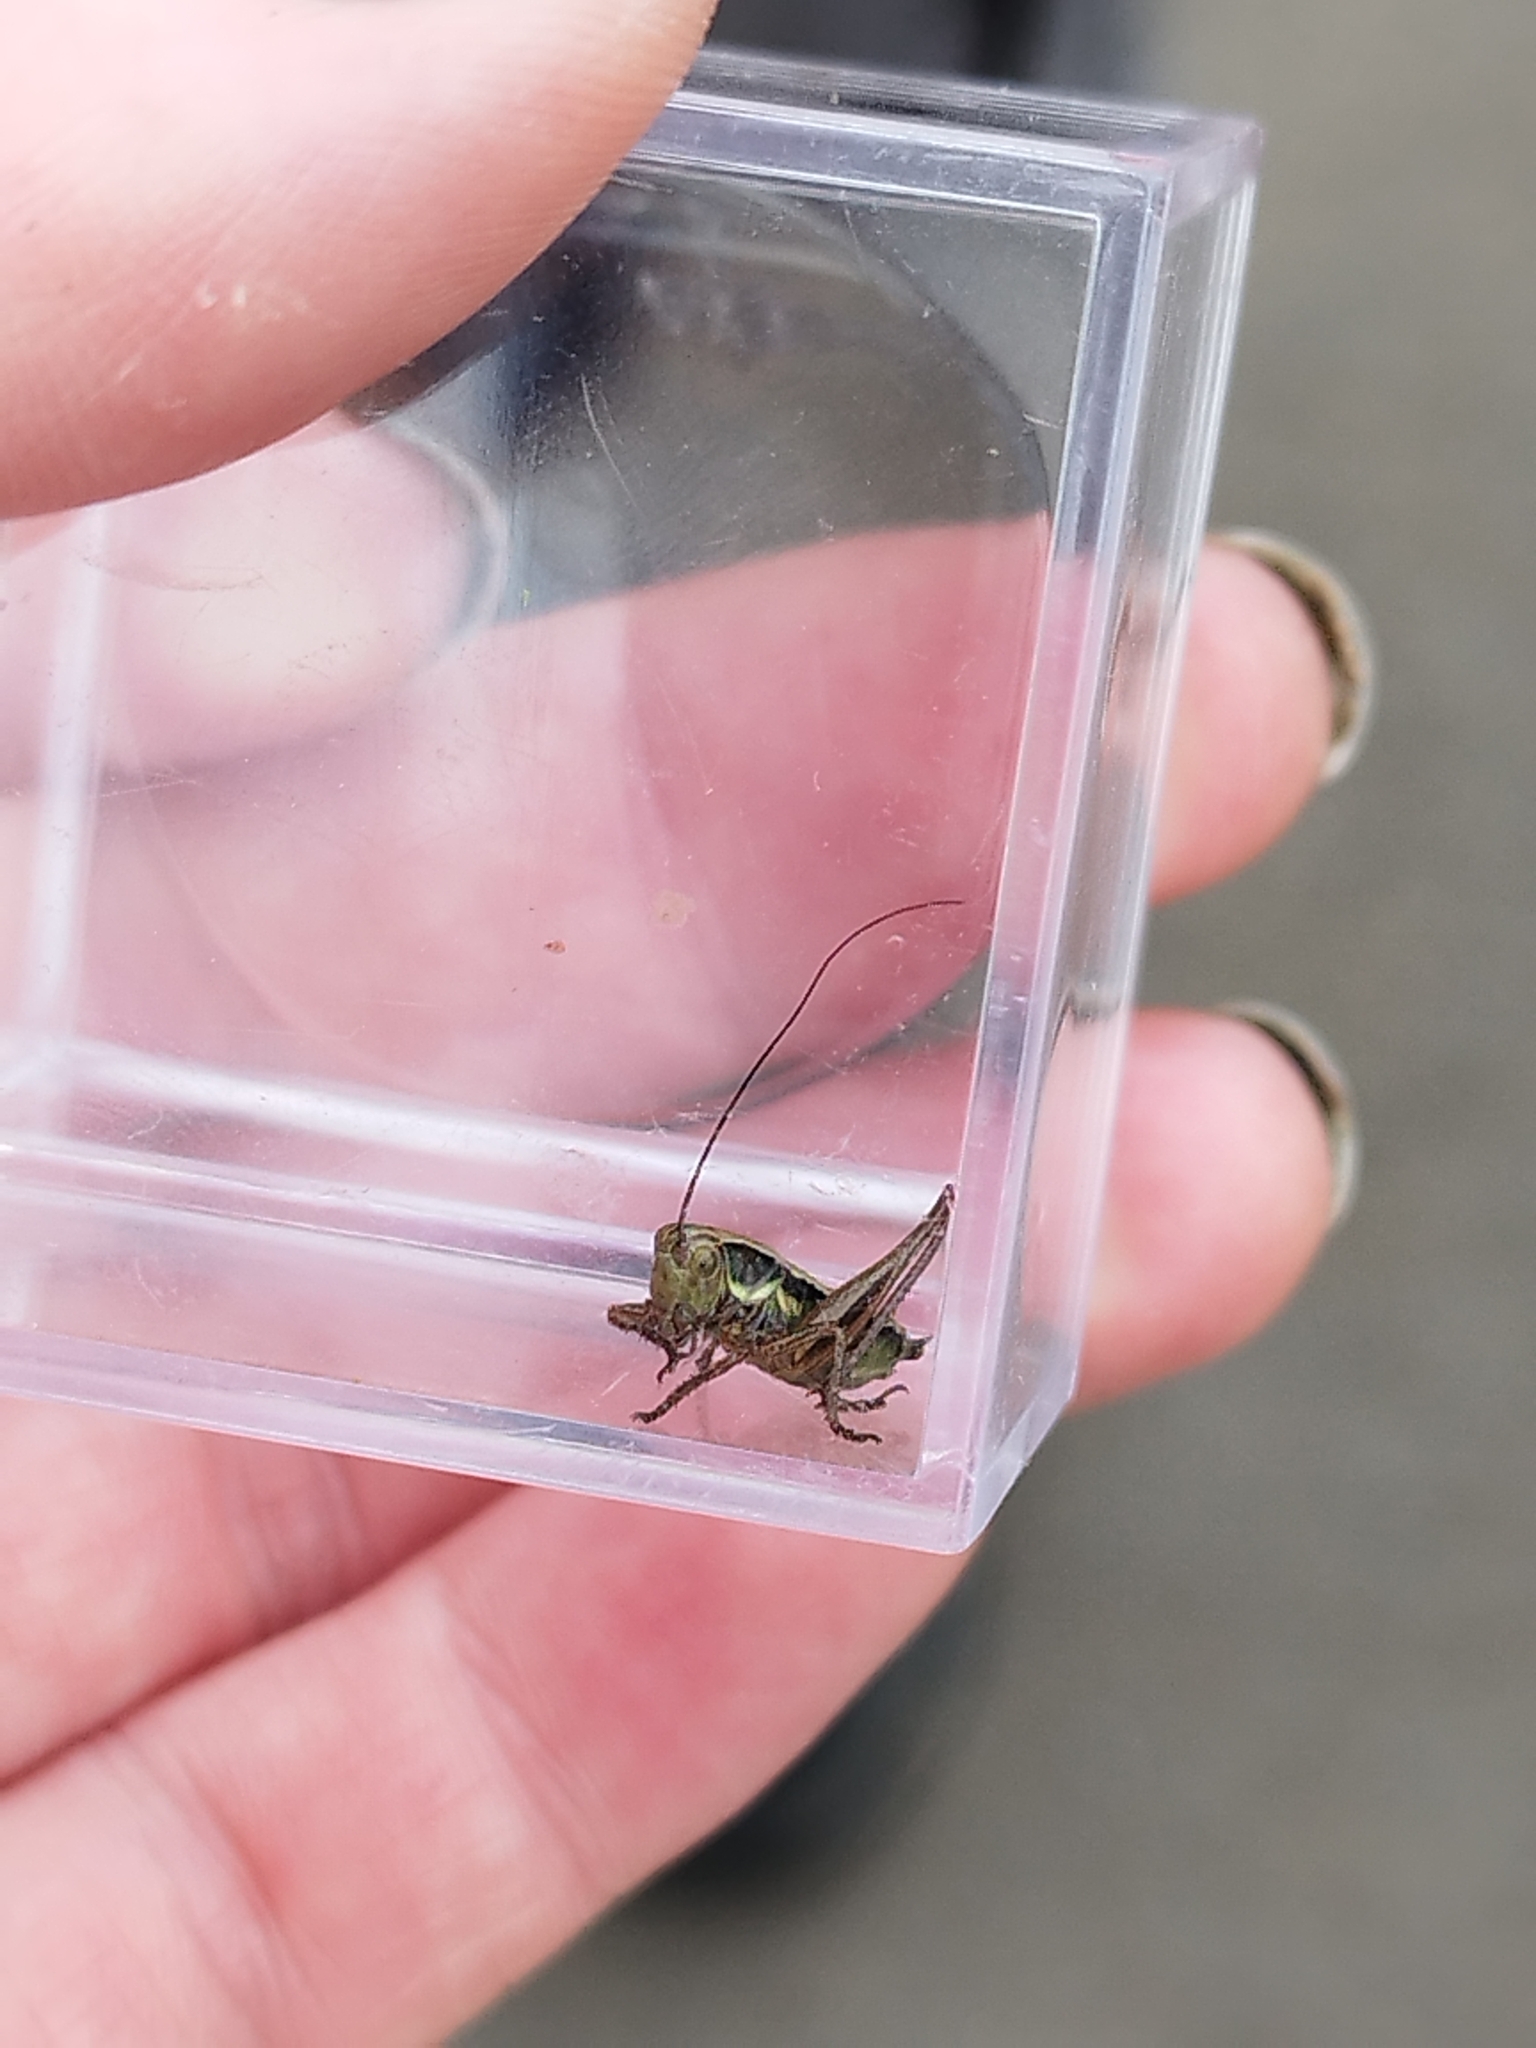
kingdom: Animalia
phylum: Arthropoda
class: Insecta
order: Orthoptera
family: Tettigoniidae
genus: Roeseliana
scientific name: Roeseliana roeselii
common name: Roesel's bush cricket
